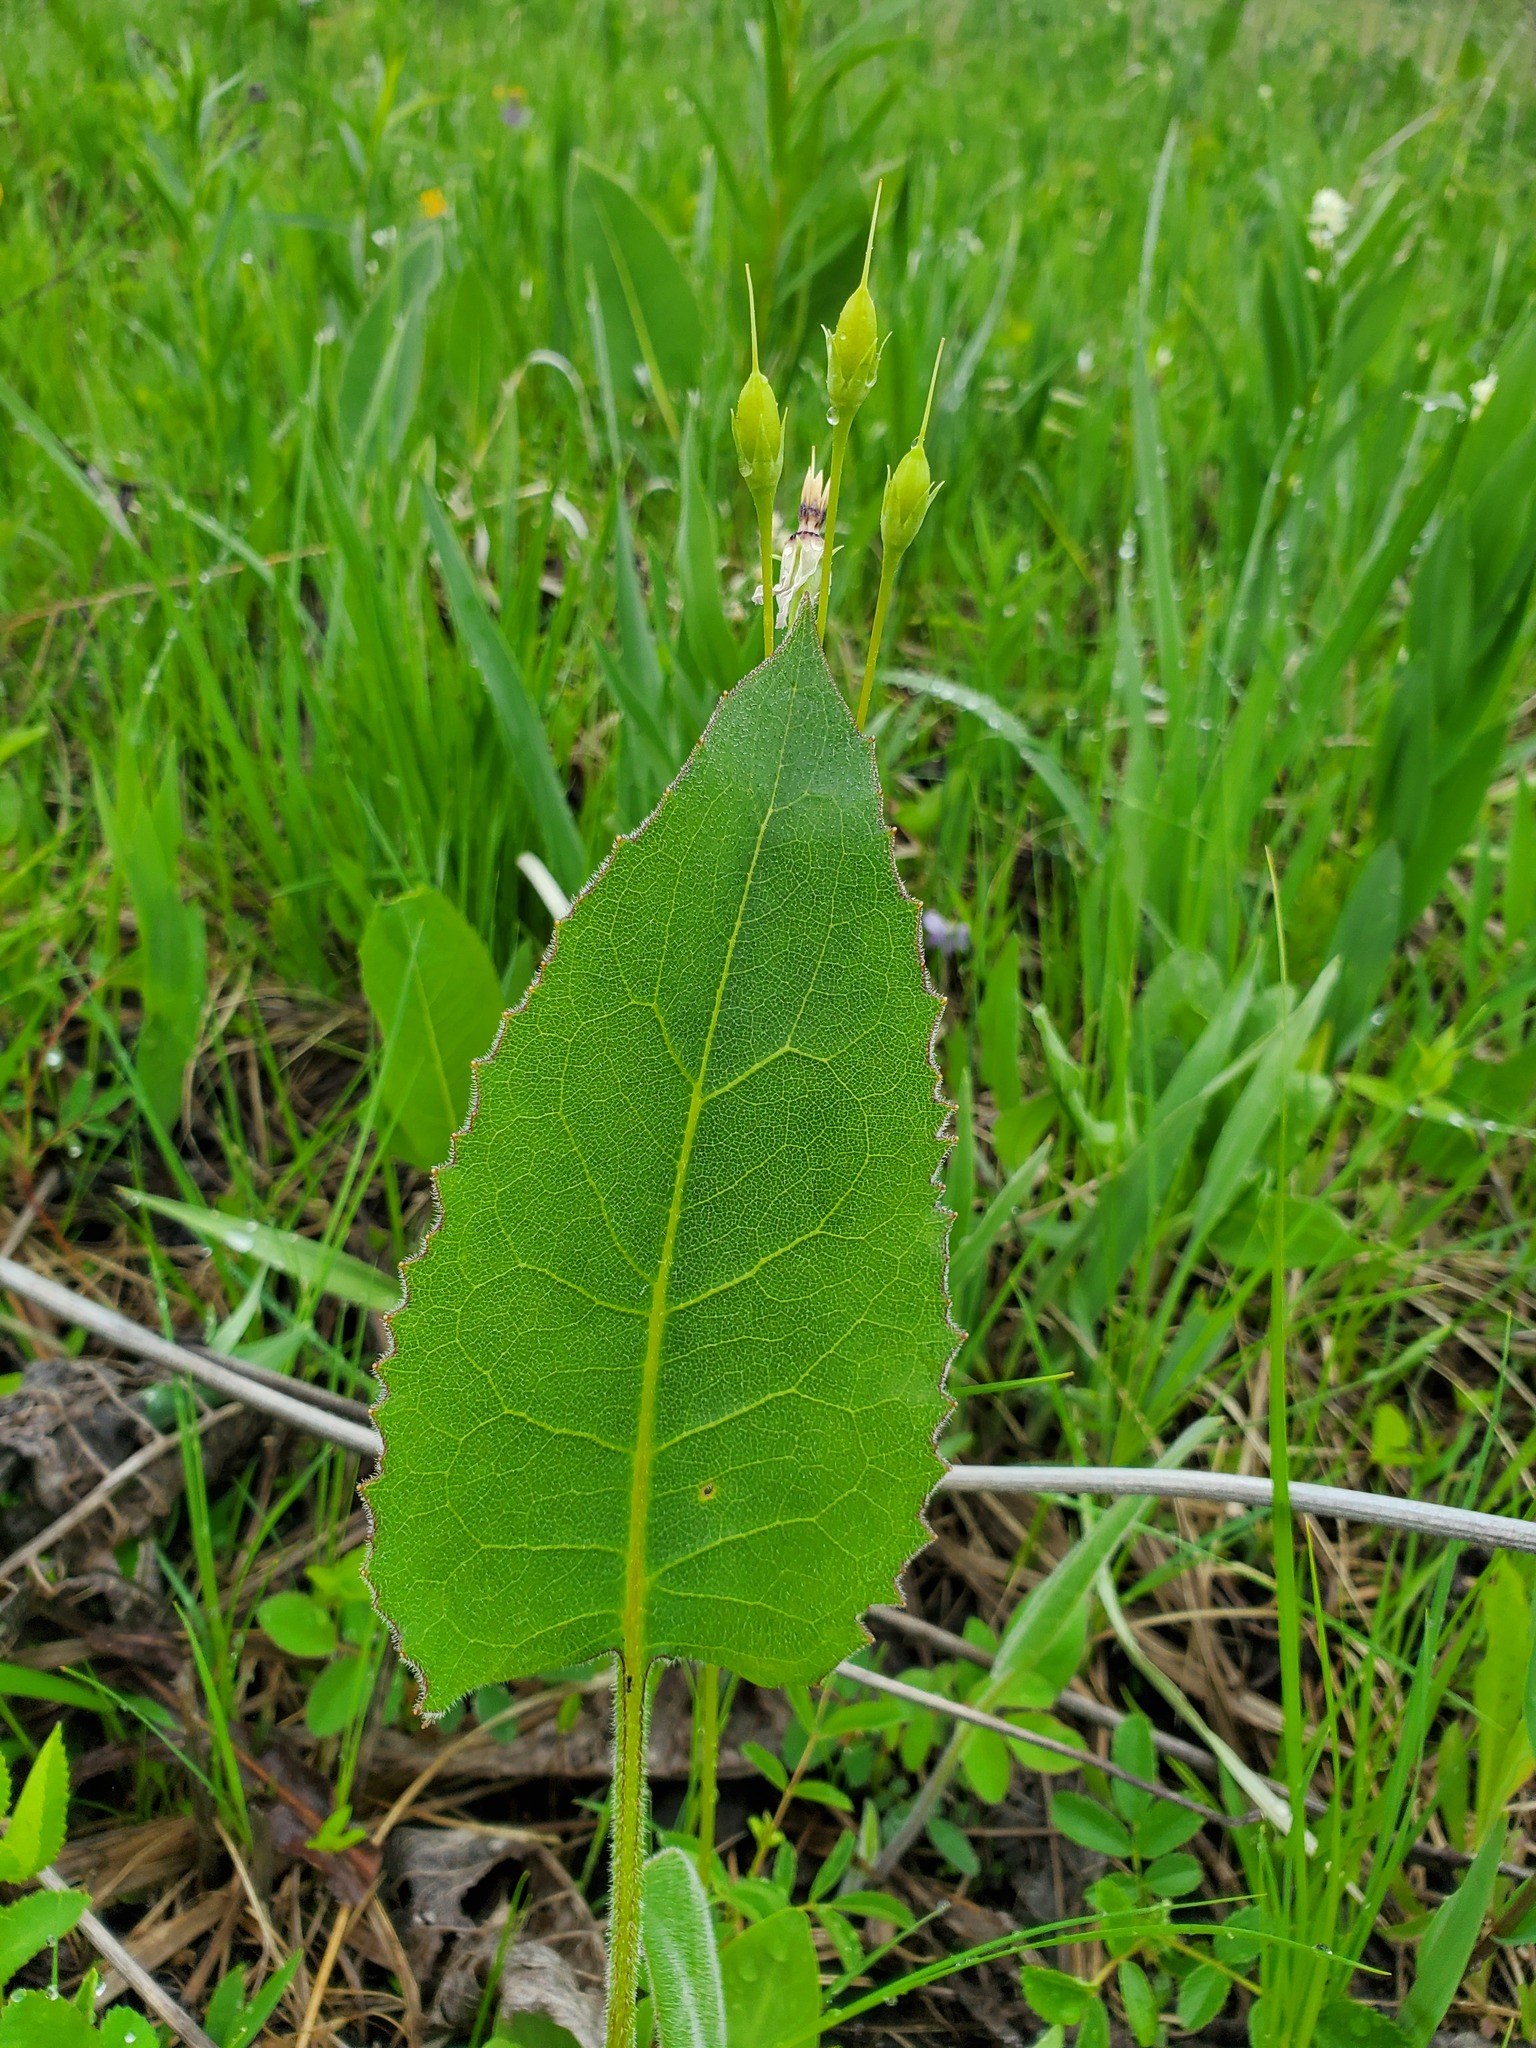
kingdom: Plantae
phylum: Tracheophyta
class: Magnoliopsida
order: Asterales
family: Asteraceae
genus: Silphium
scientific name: Silphium terebinthinaceum
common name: Basal-leaf rosinweed
